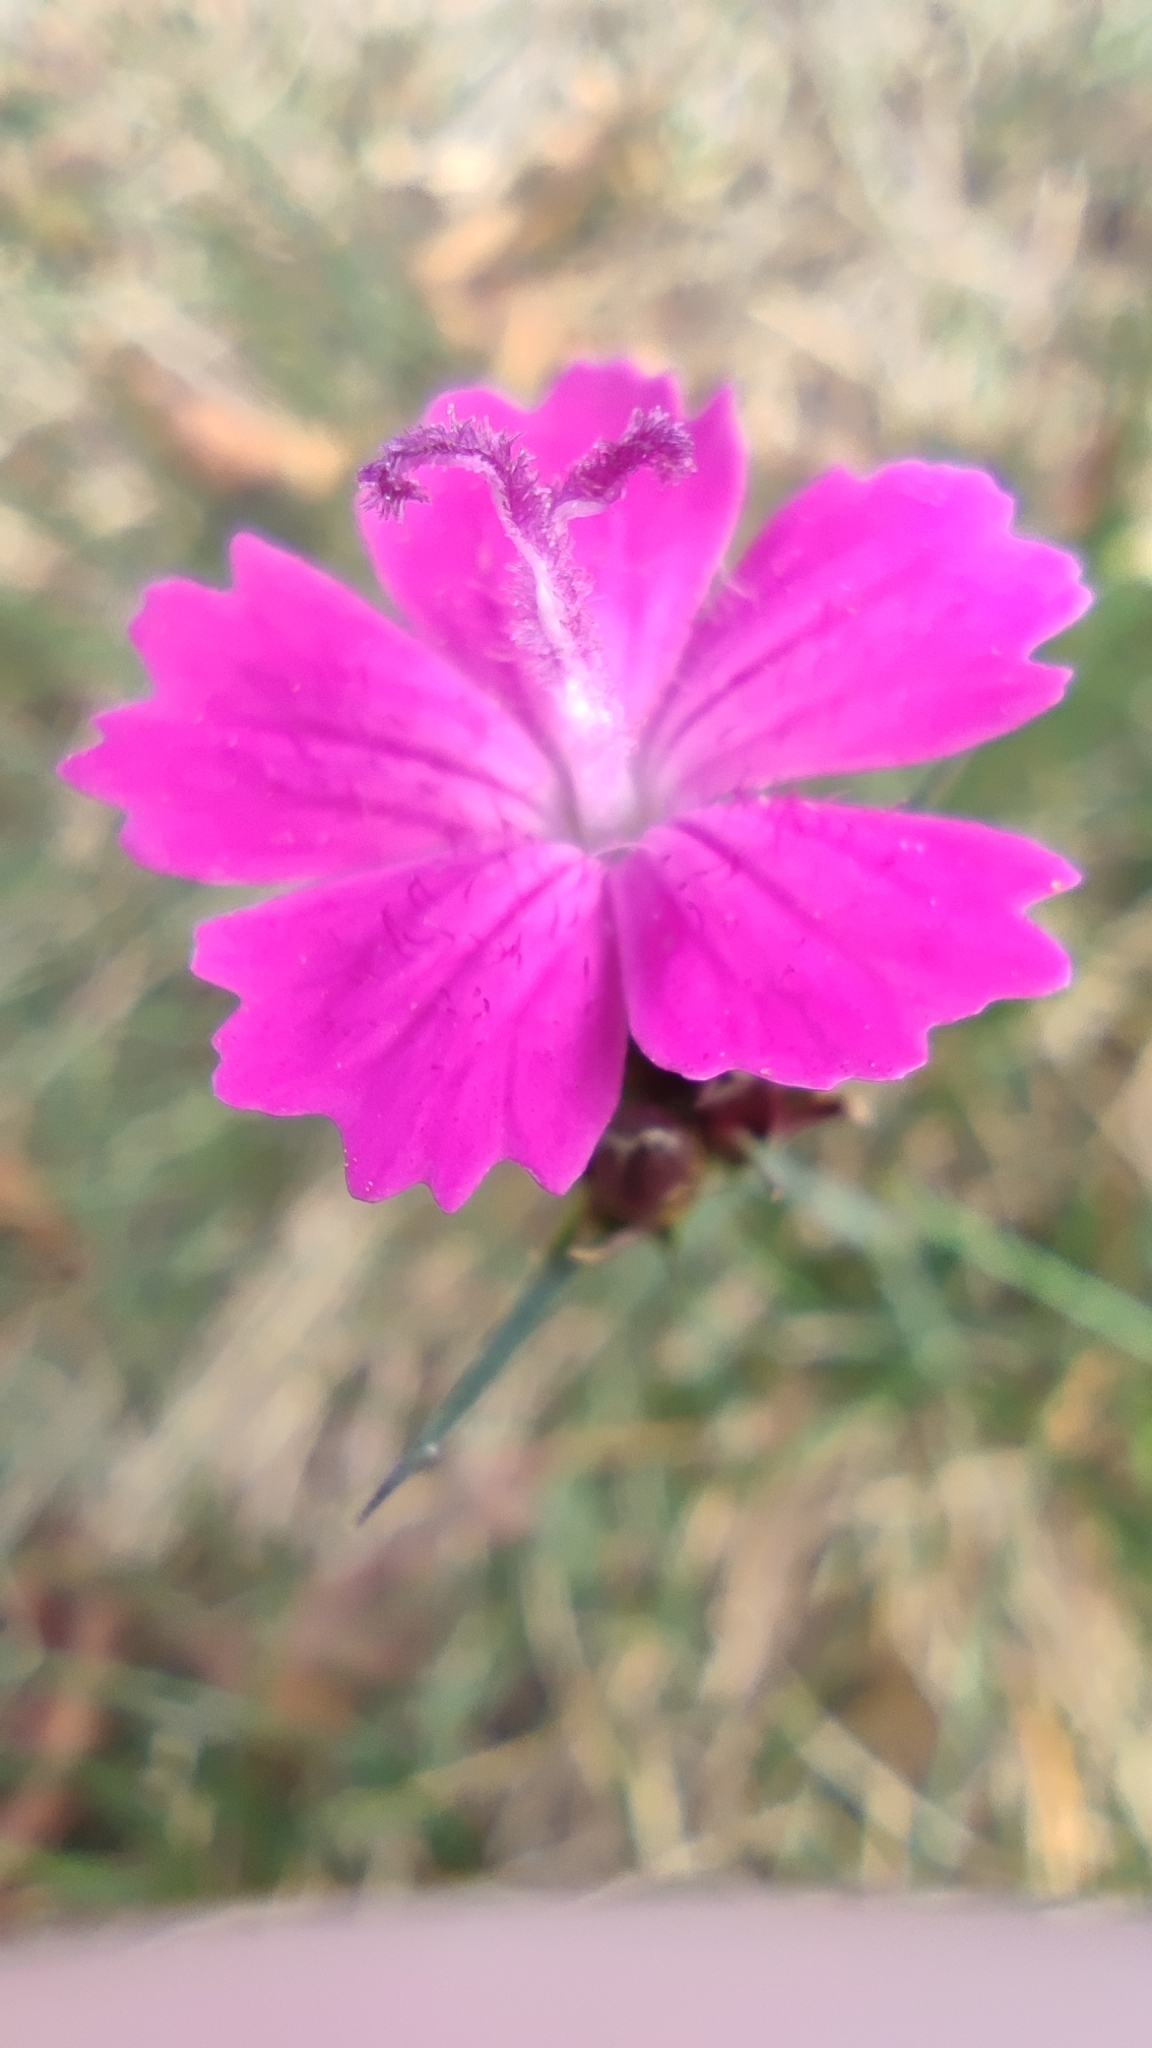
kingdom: Plantae
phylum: Tracheophyta
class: Magnoliopsida
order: Caryophyllales
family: Caryophyllaceae
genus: Dianthus
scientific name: Dianthus carthusianorum
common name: Carthusian pink
